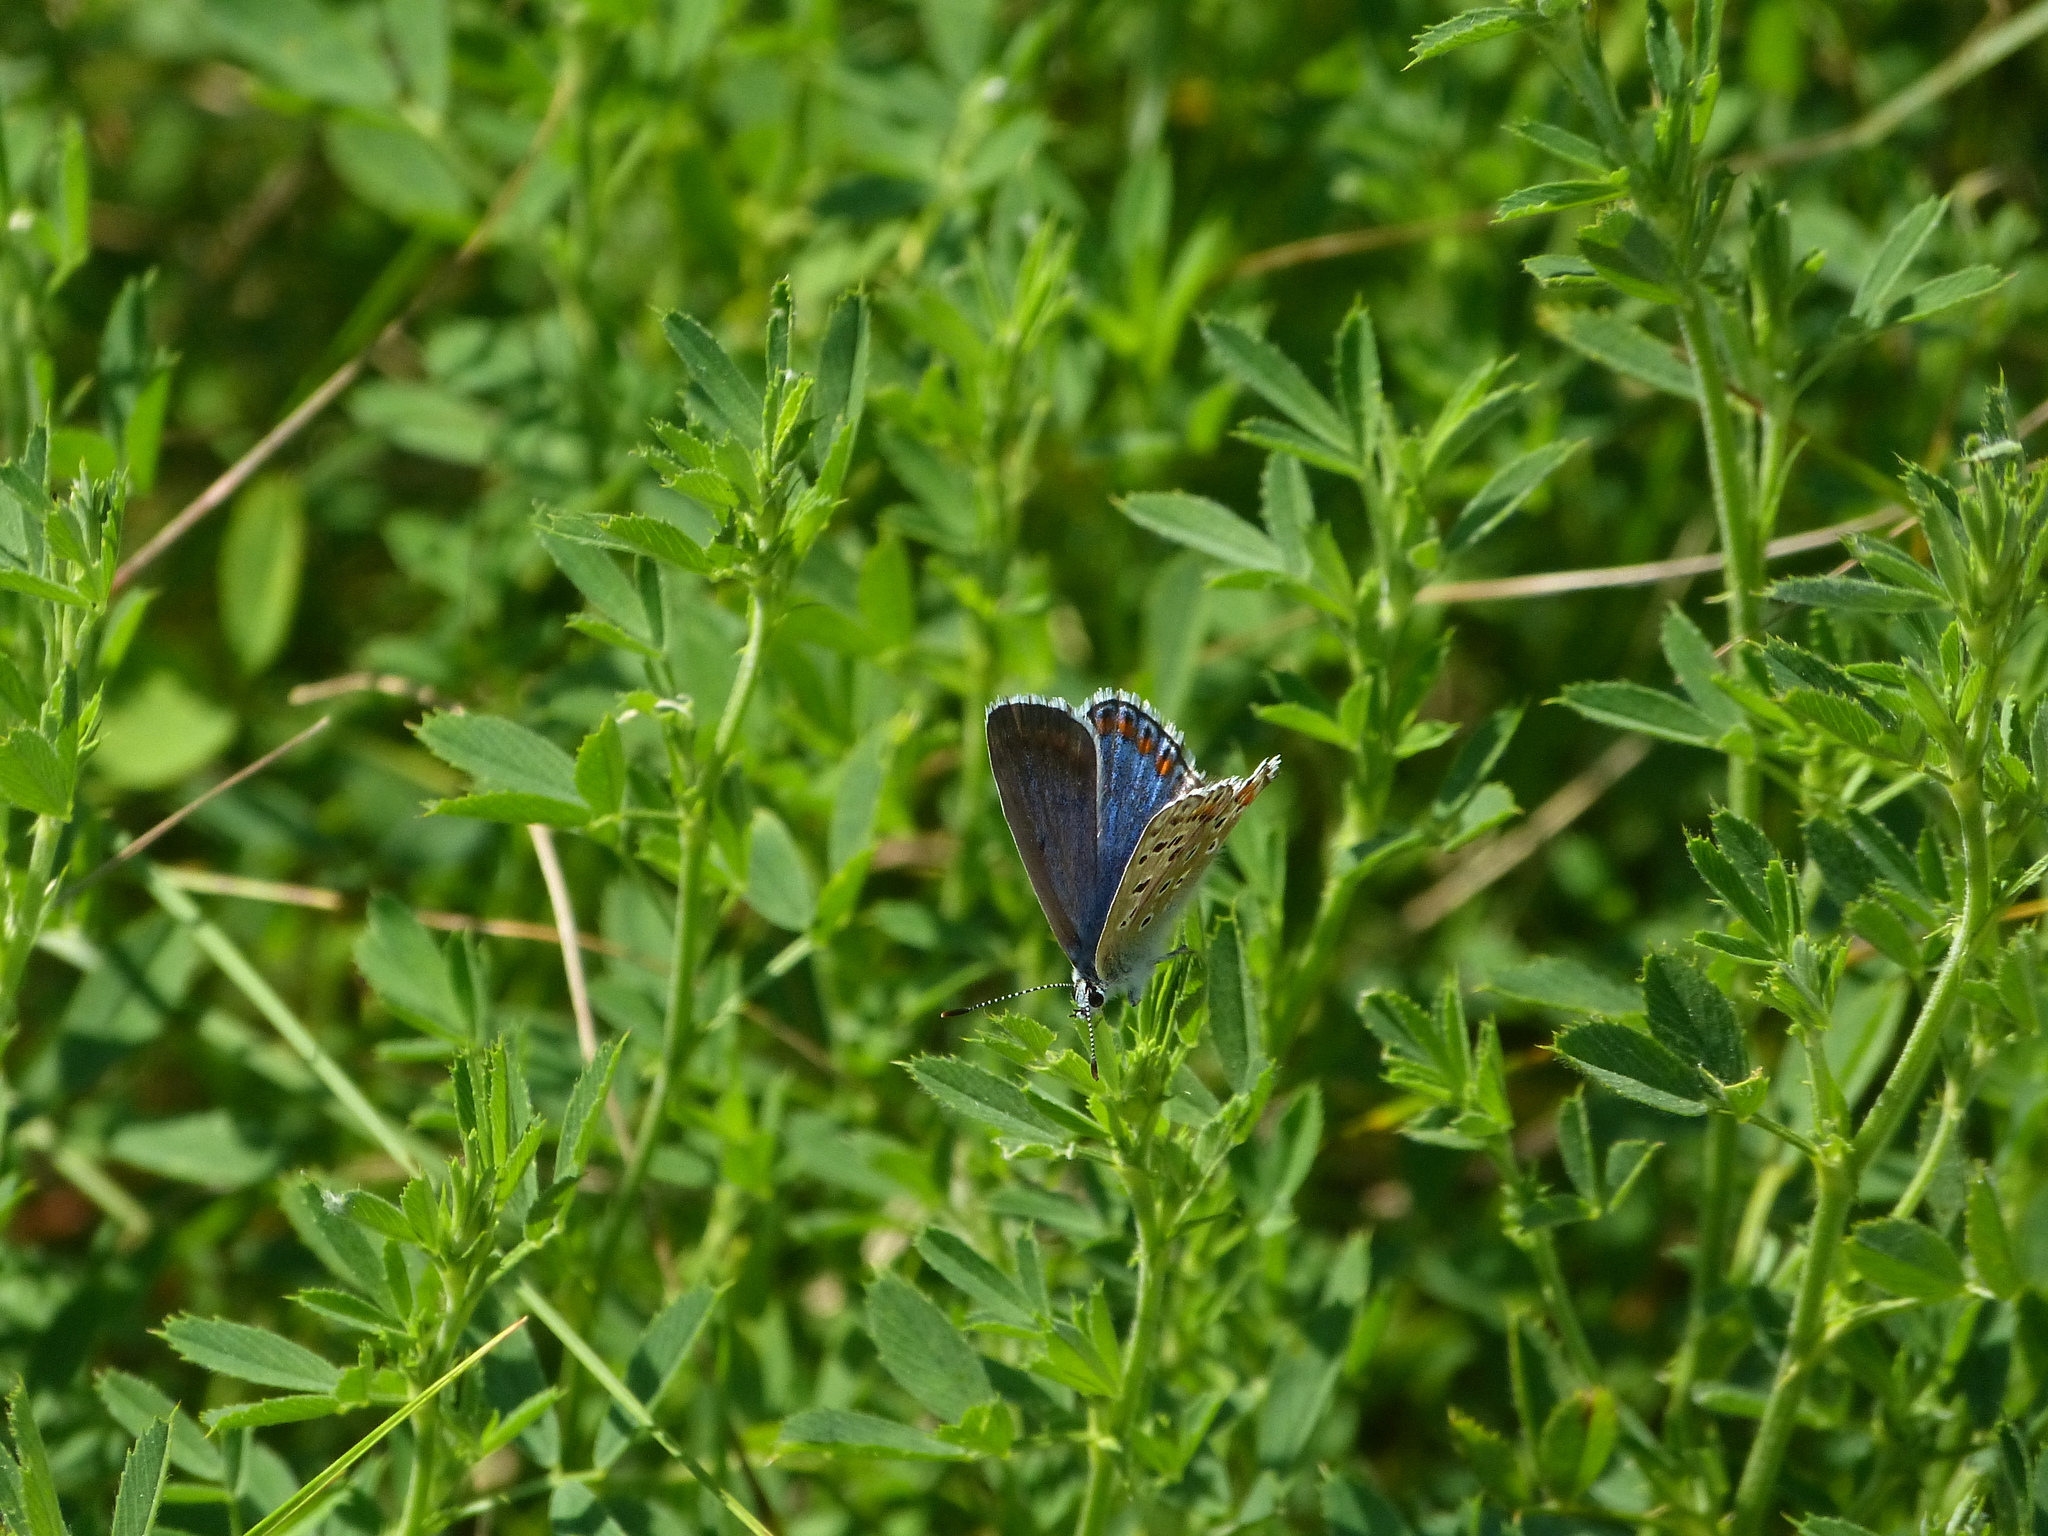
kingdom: Animalia
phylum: Arthropoda
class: Insecta
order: Lepidoptera
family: Lycaenidae
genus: Lysandra
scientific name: Lysandra bellargus
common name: Adonis blue
